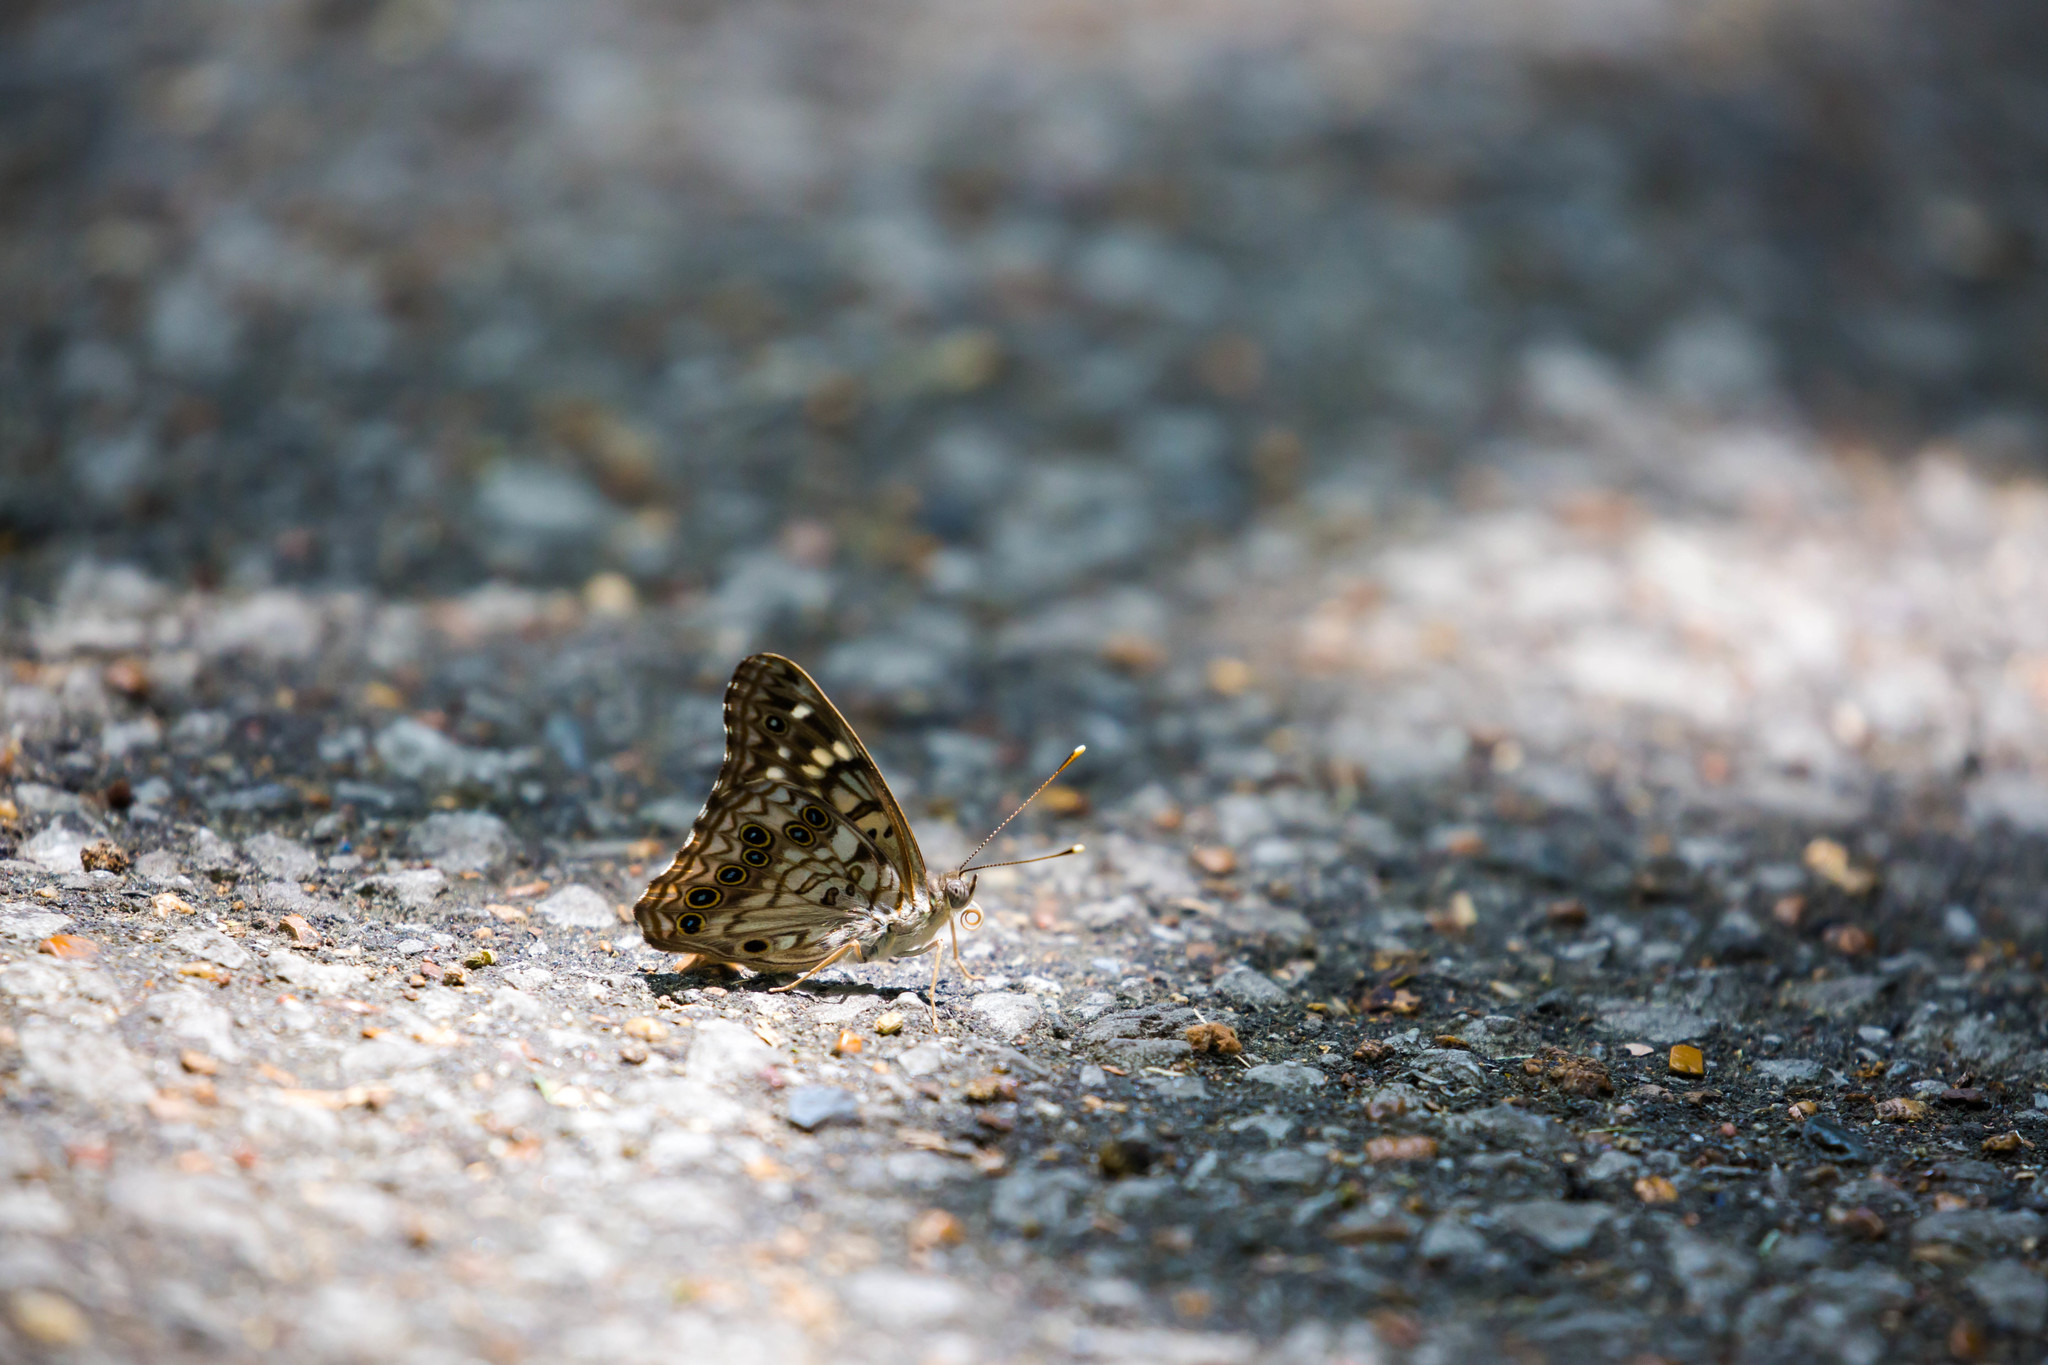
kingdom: Animalia
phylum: Arthropoda
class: Insecta
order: Lepidoptera
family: Nymphalidae
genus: Asterocampa
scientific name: Asterocampa celtis
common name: Hackberry emperor
